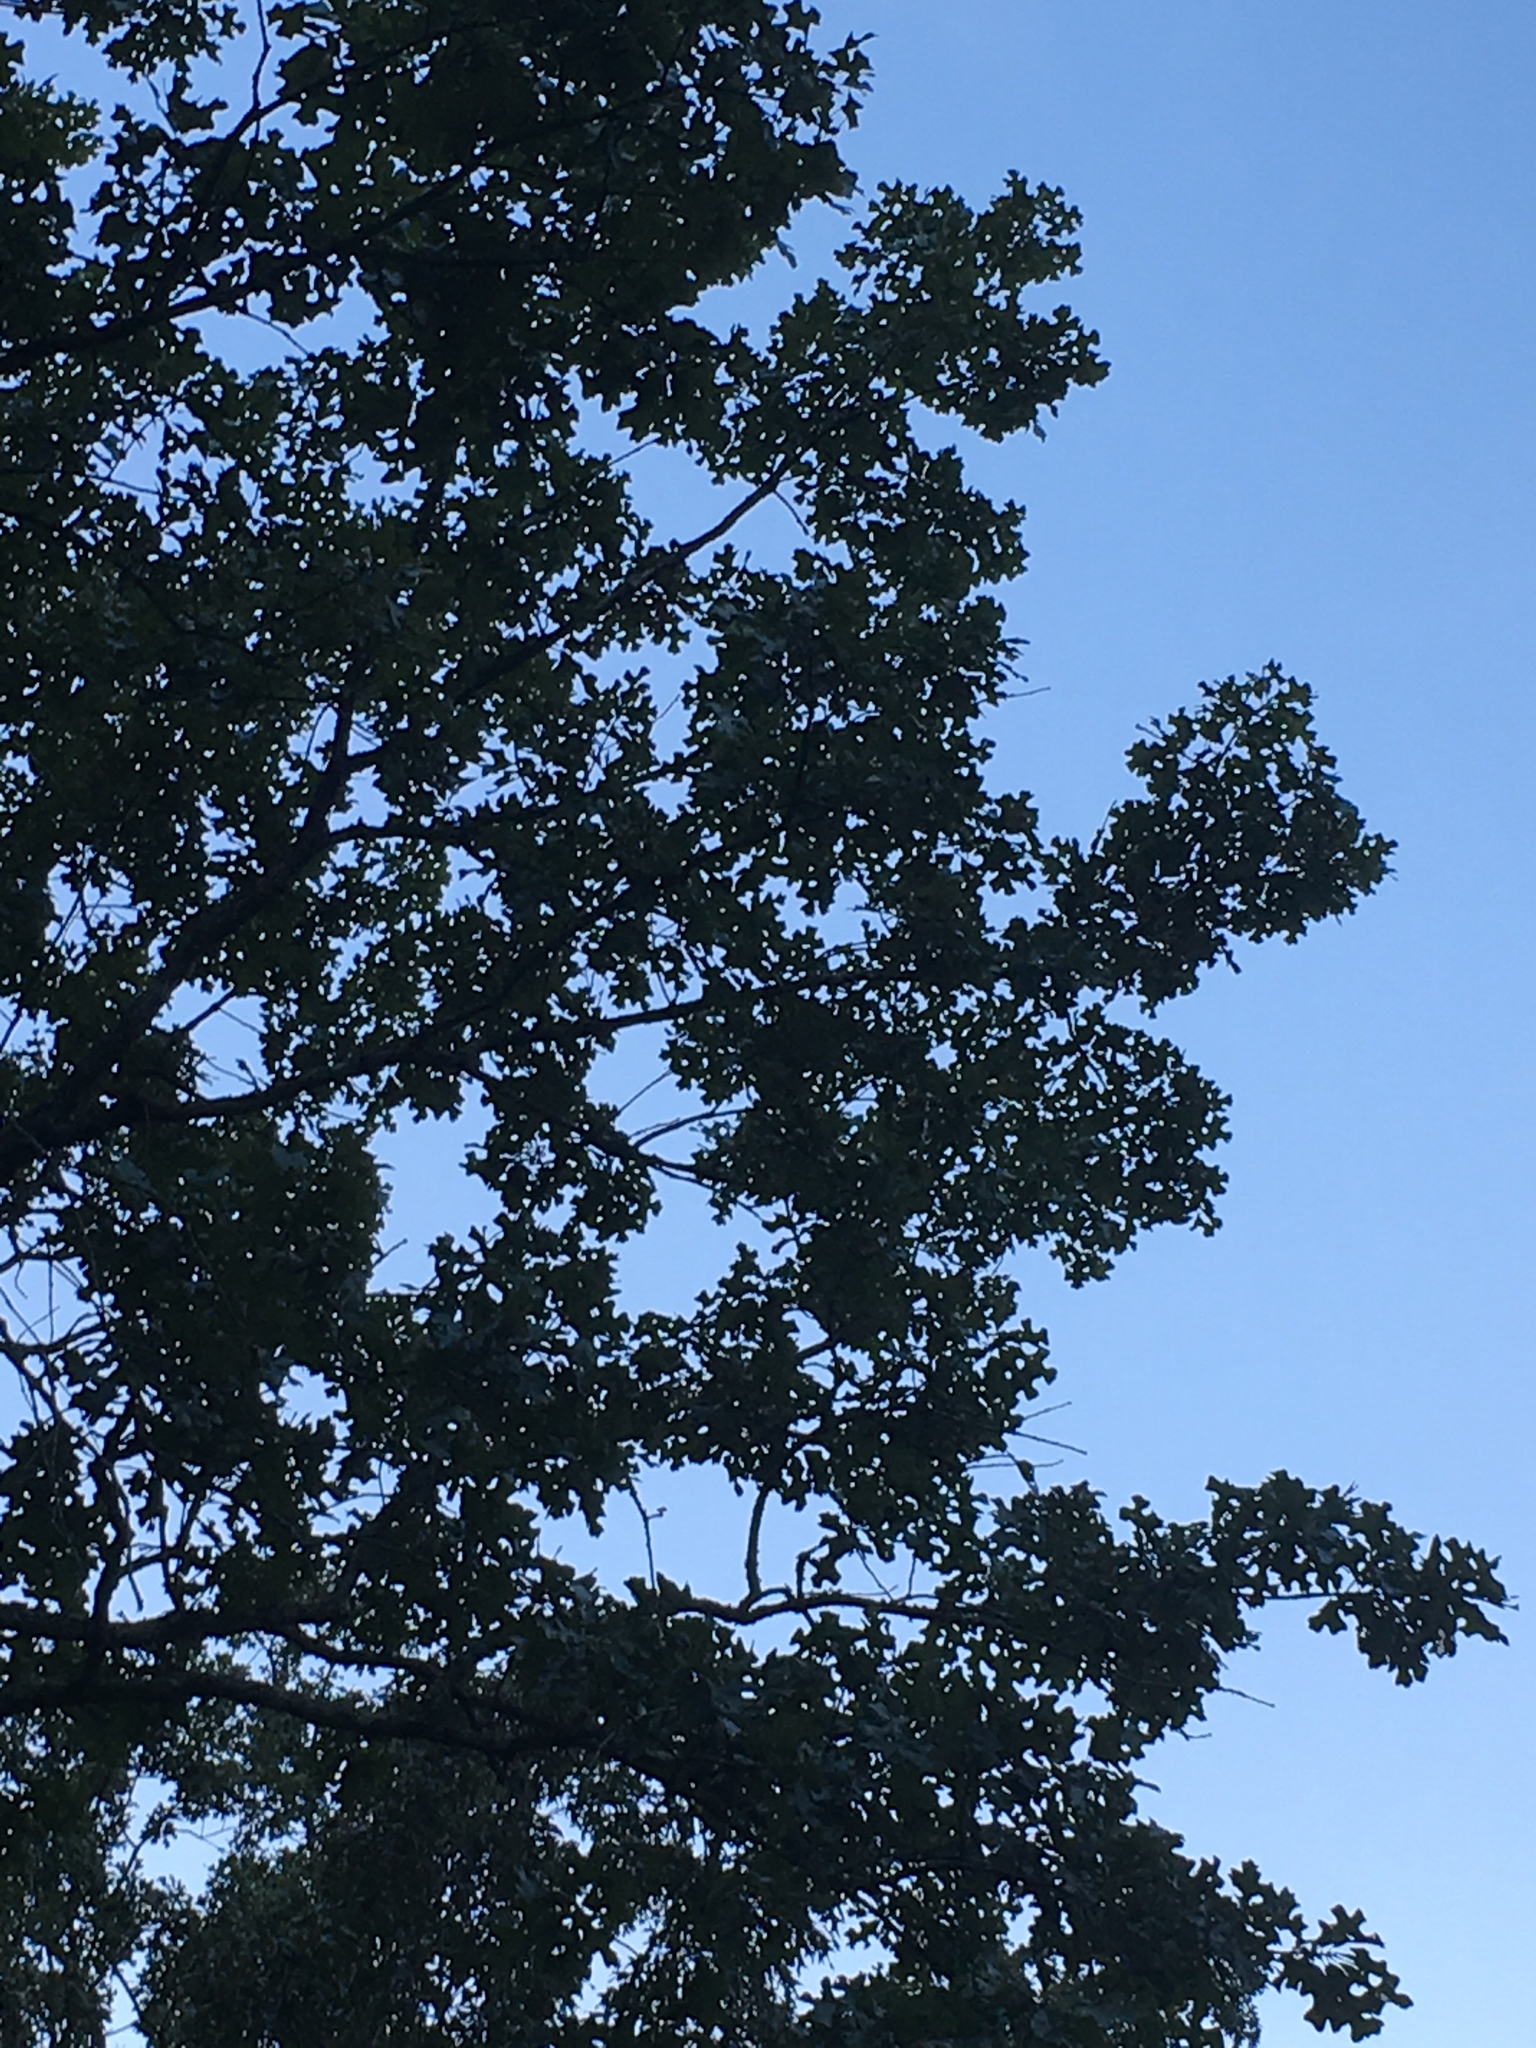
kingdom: Plantae
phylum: Tracheophyta
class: Magnoliopsida
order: Fagales
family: Fagaceae
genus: Quercus
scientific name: Quercus stellata
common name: Post oak
